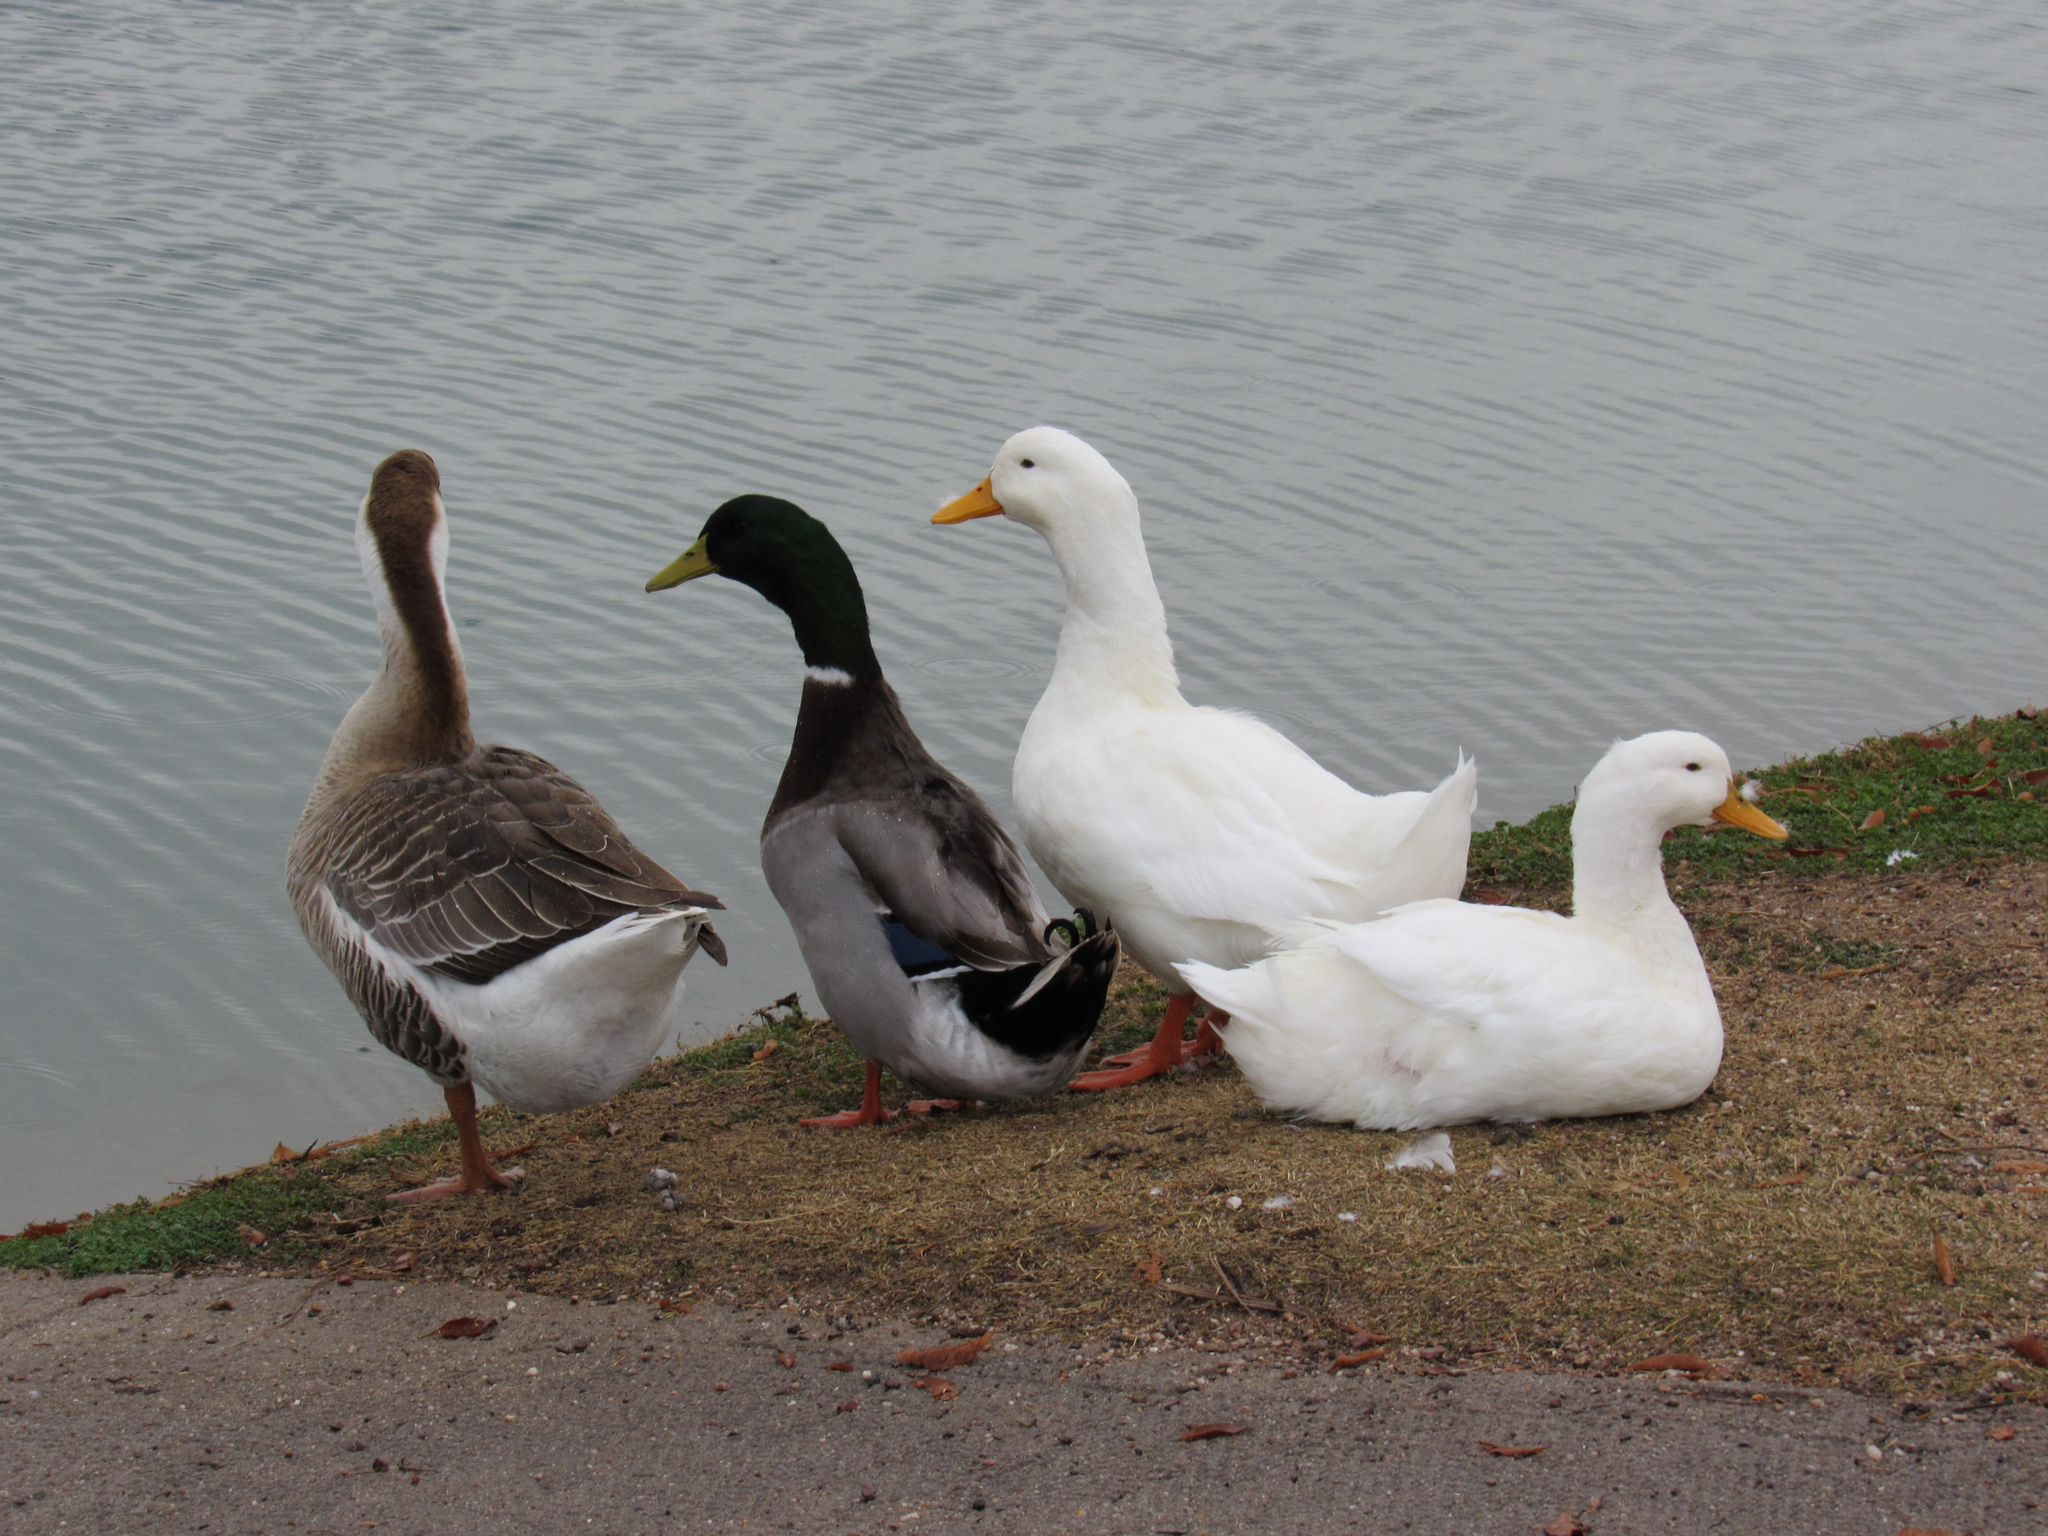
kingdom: Animalia
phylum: Chordata
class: Aves
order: Anseriformes
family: Anatidae
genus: Anas
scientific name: Anas platyrhynchos
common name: Mallard
